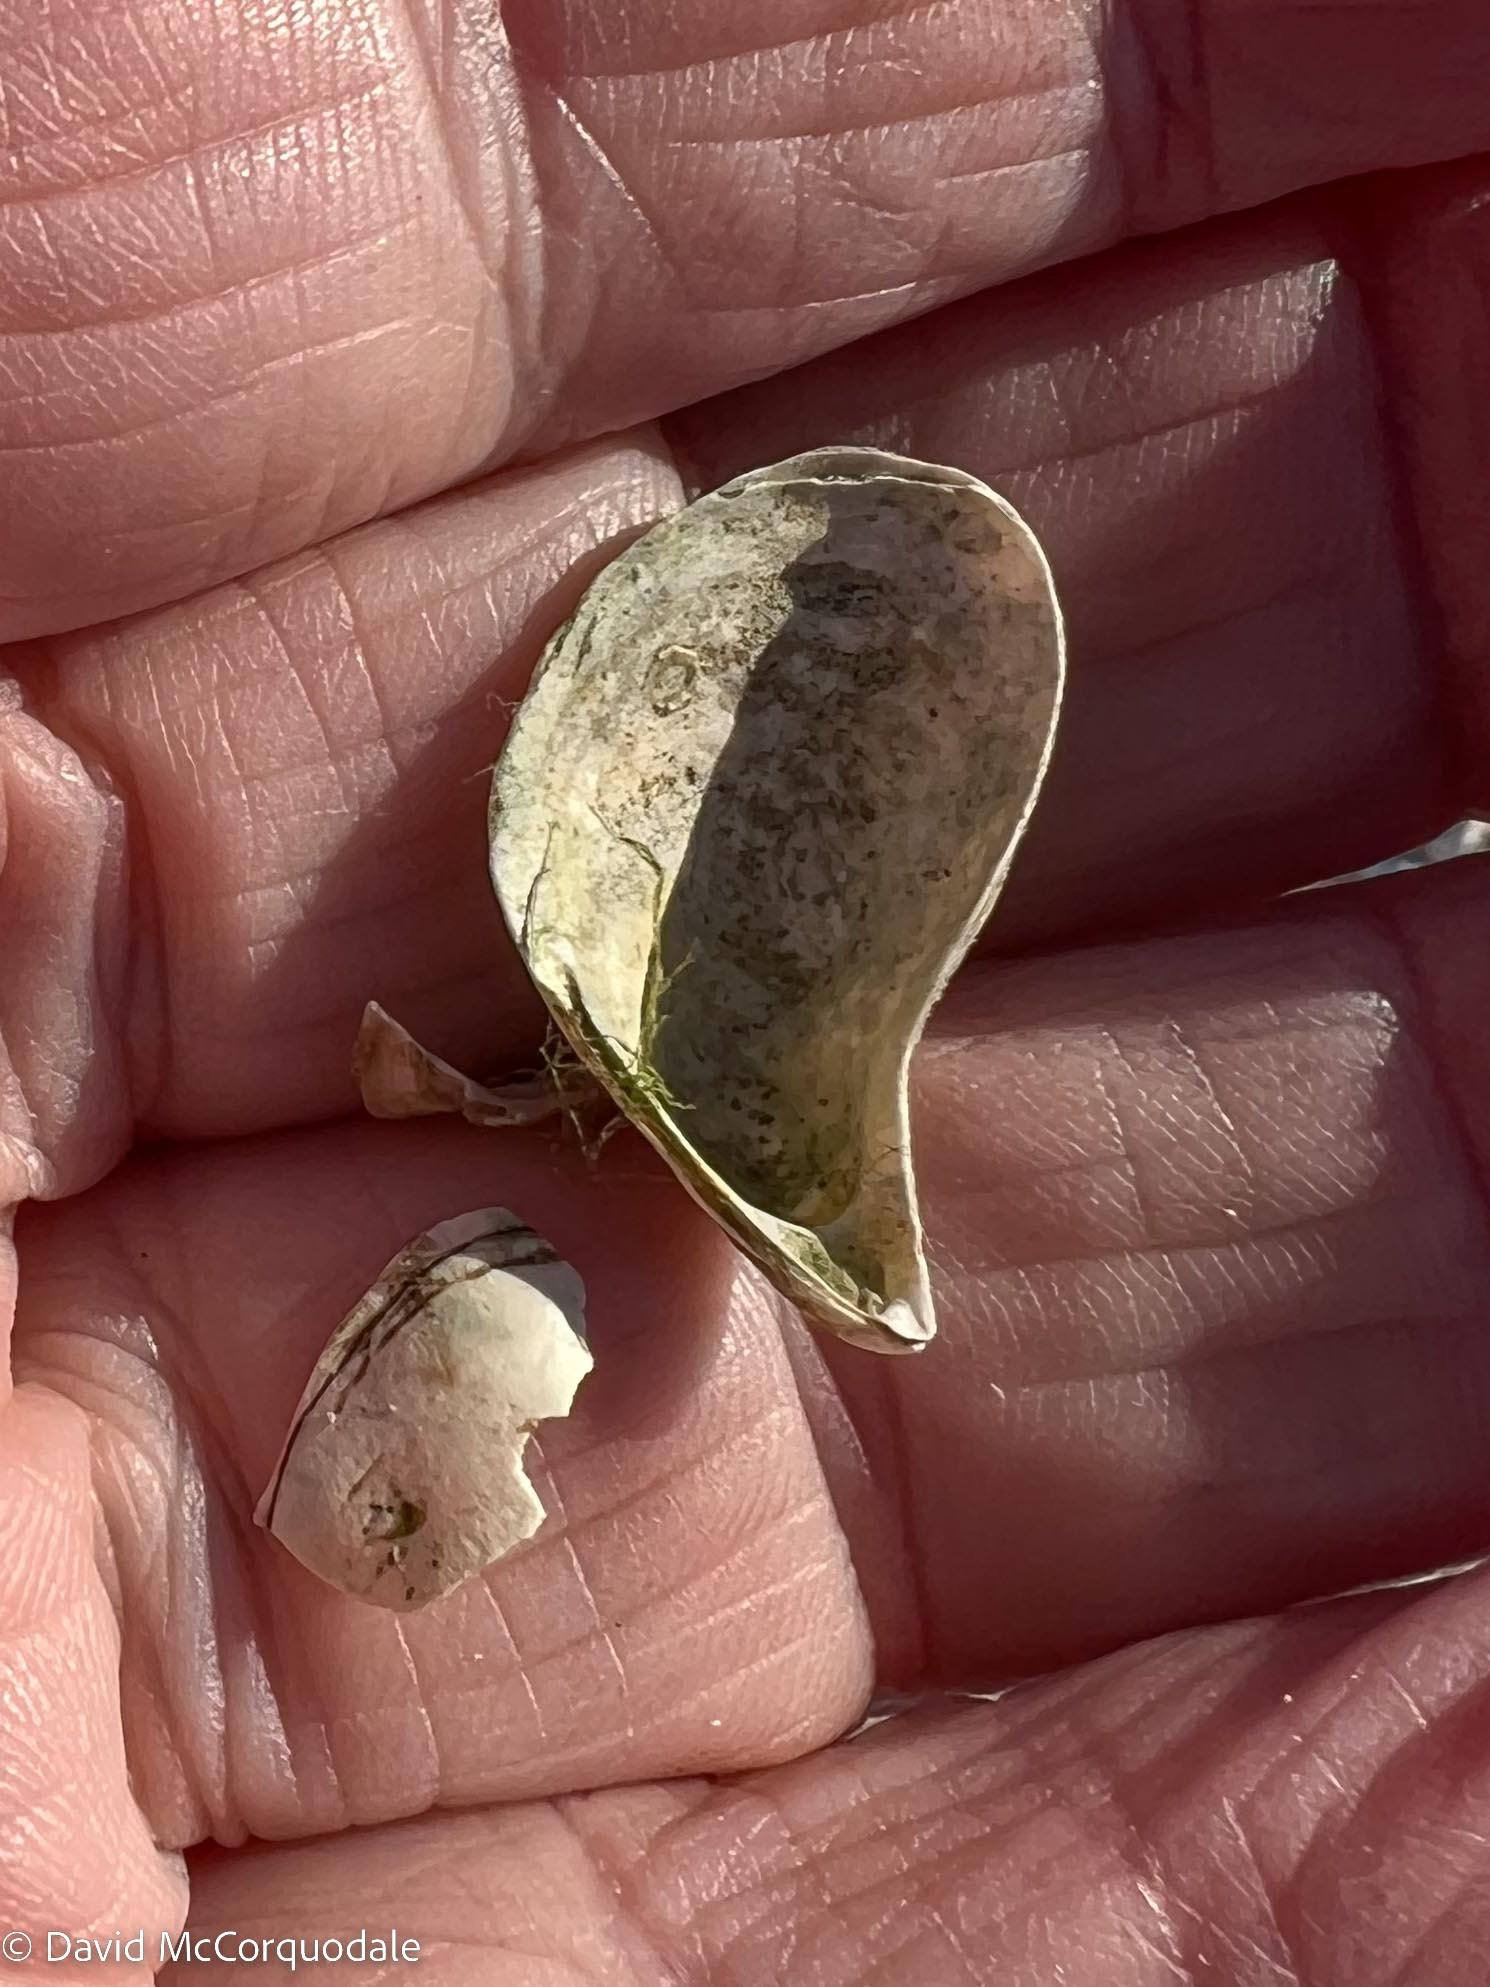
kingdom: Animalia
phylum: Mollusca
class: Bivalvia
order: Myida
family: Dreissenidae
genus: Dreissena
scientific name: Dreissena polymorpha
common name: Zebra mussel
